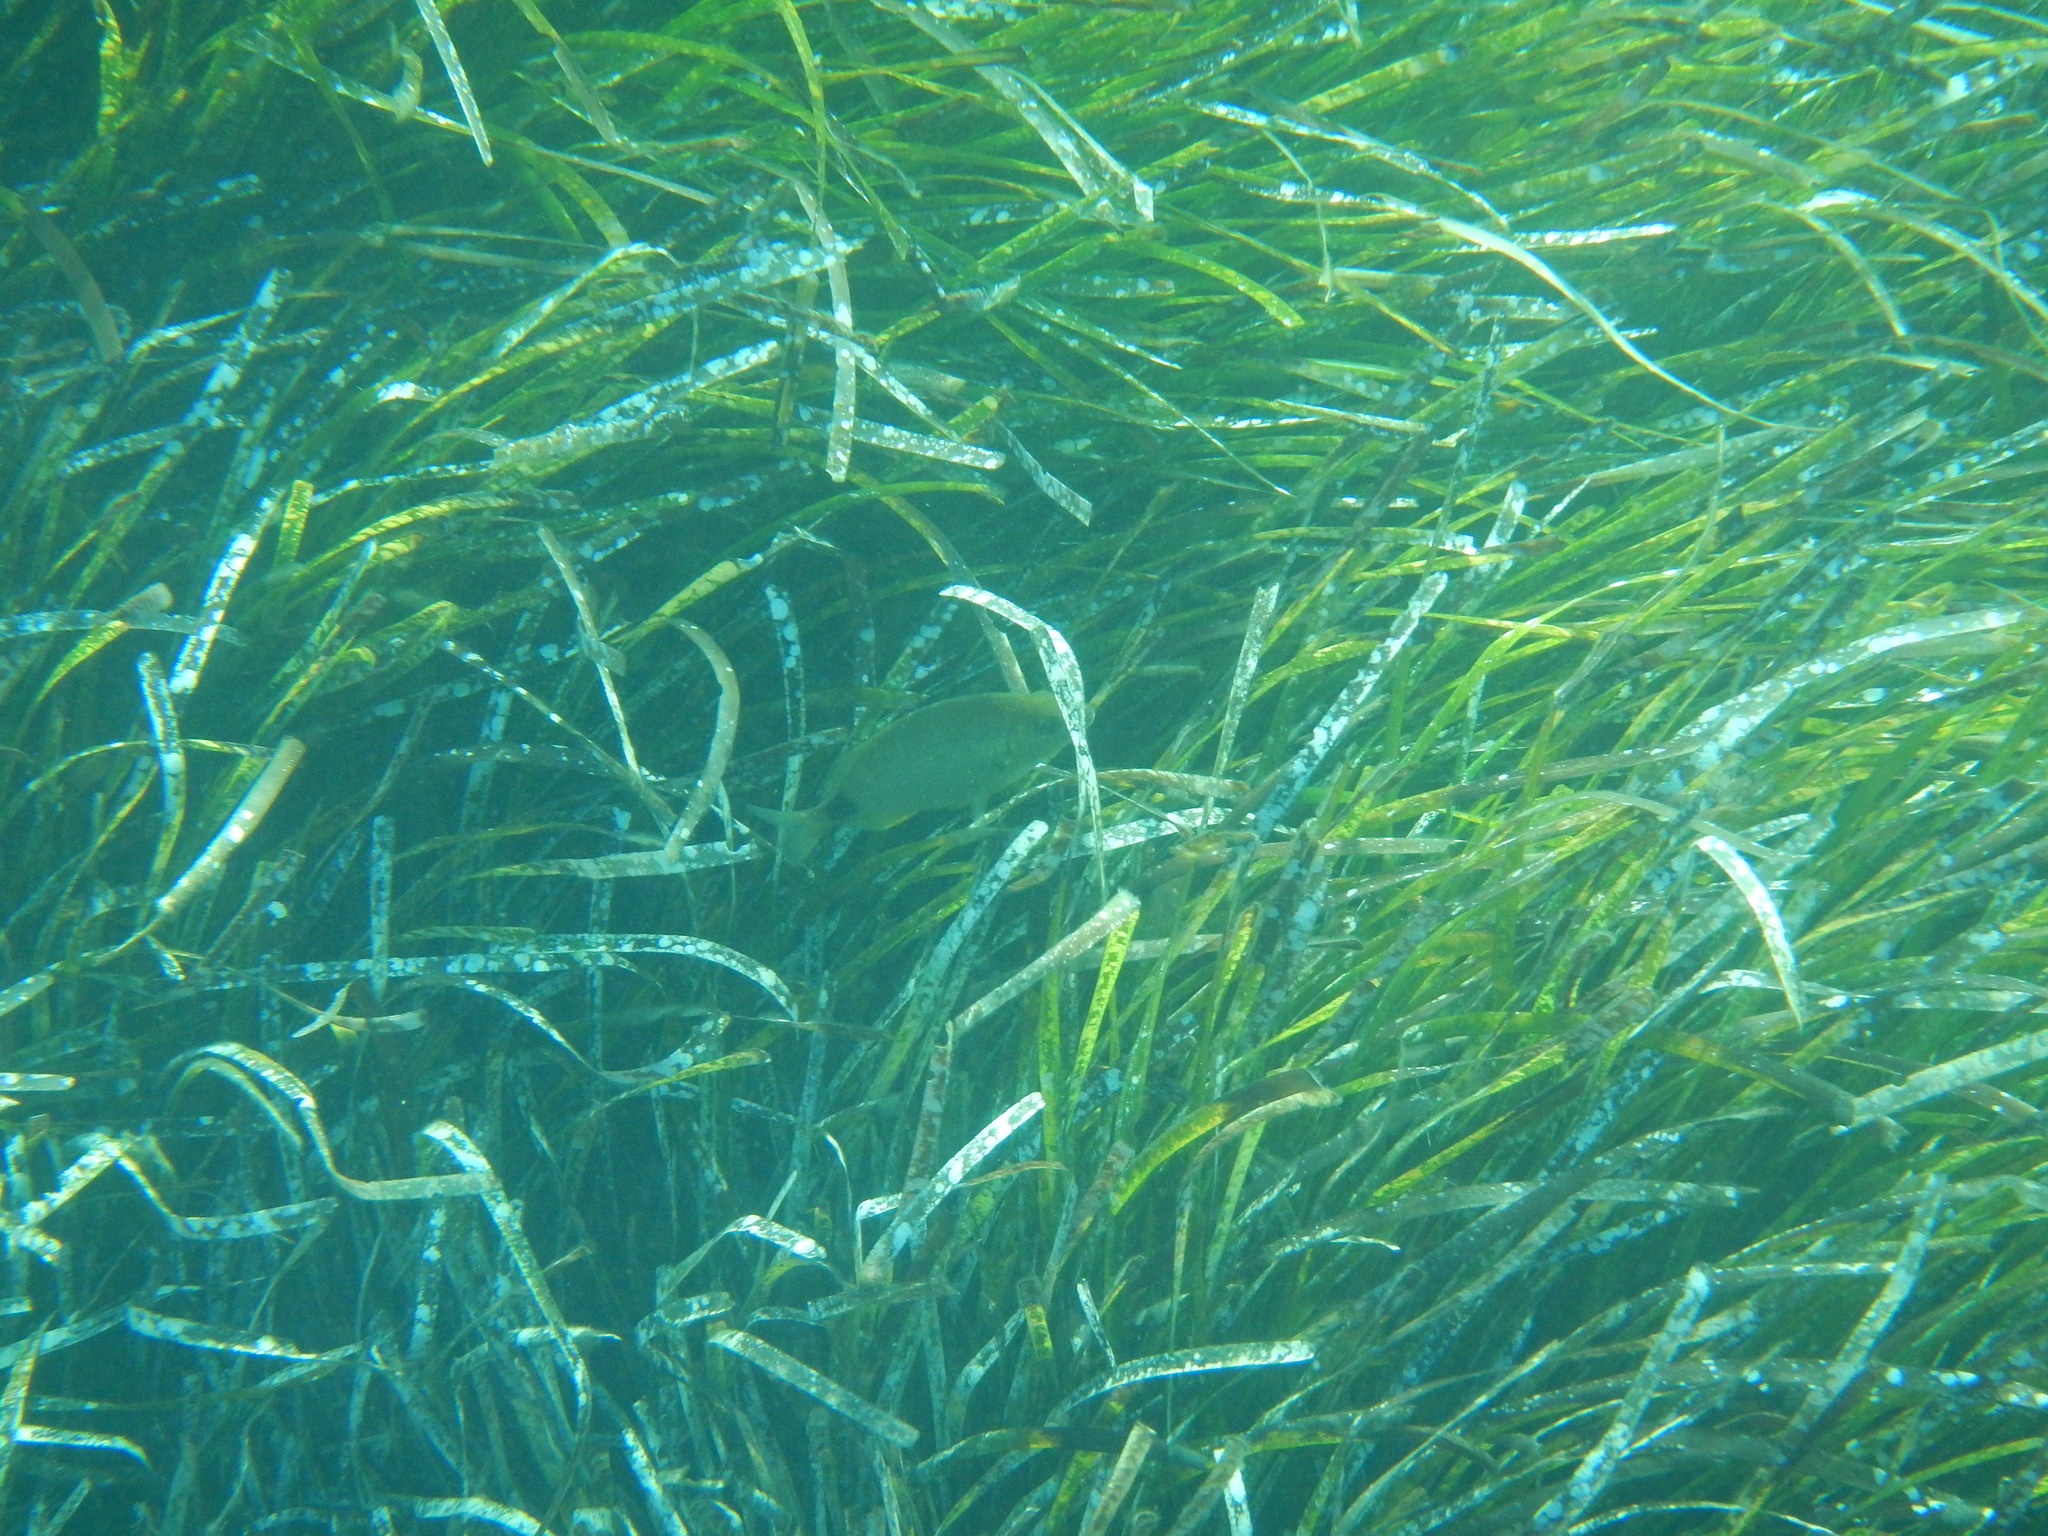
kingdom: Animalia
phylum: Chordata
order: Perciformes
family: Sparidae
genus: Diplodus
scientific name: Diplodus annularis
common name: Annular seabream
